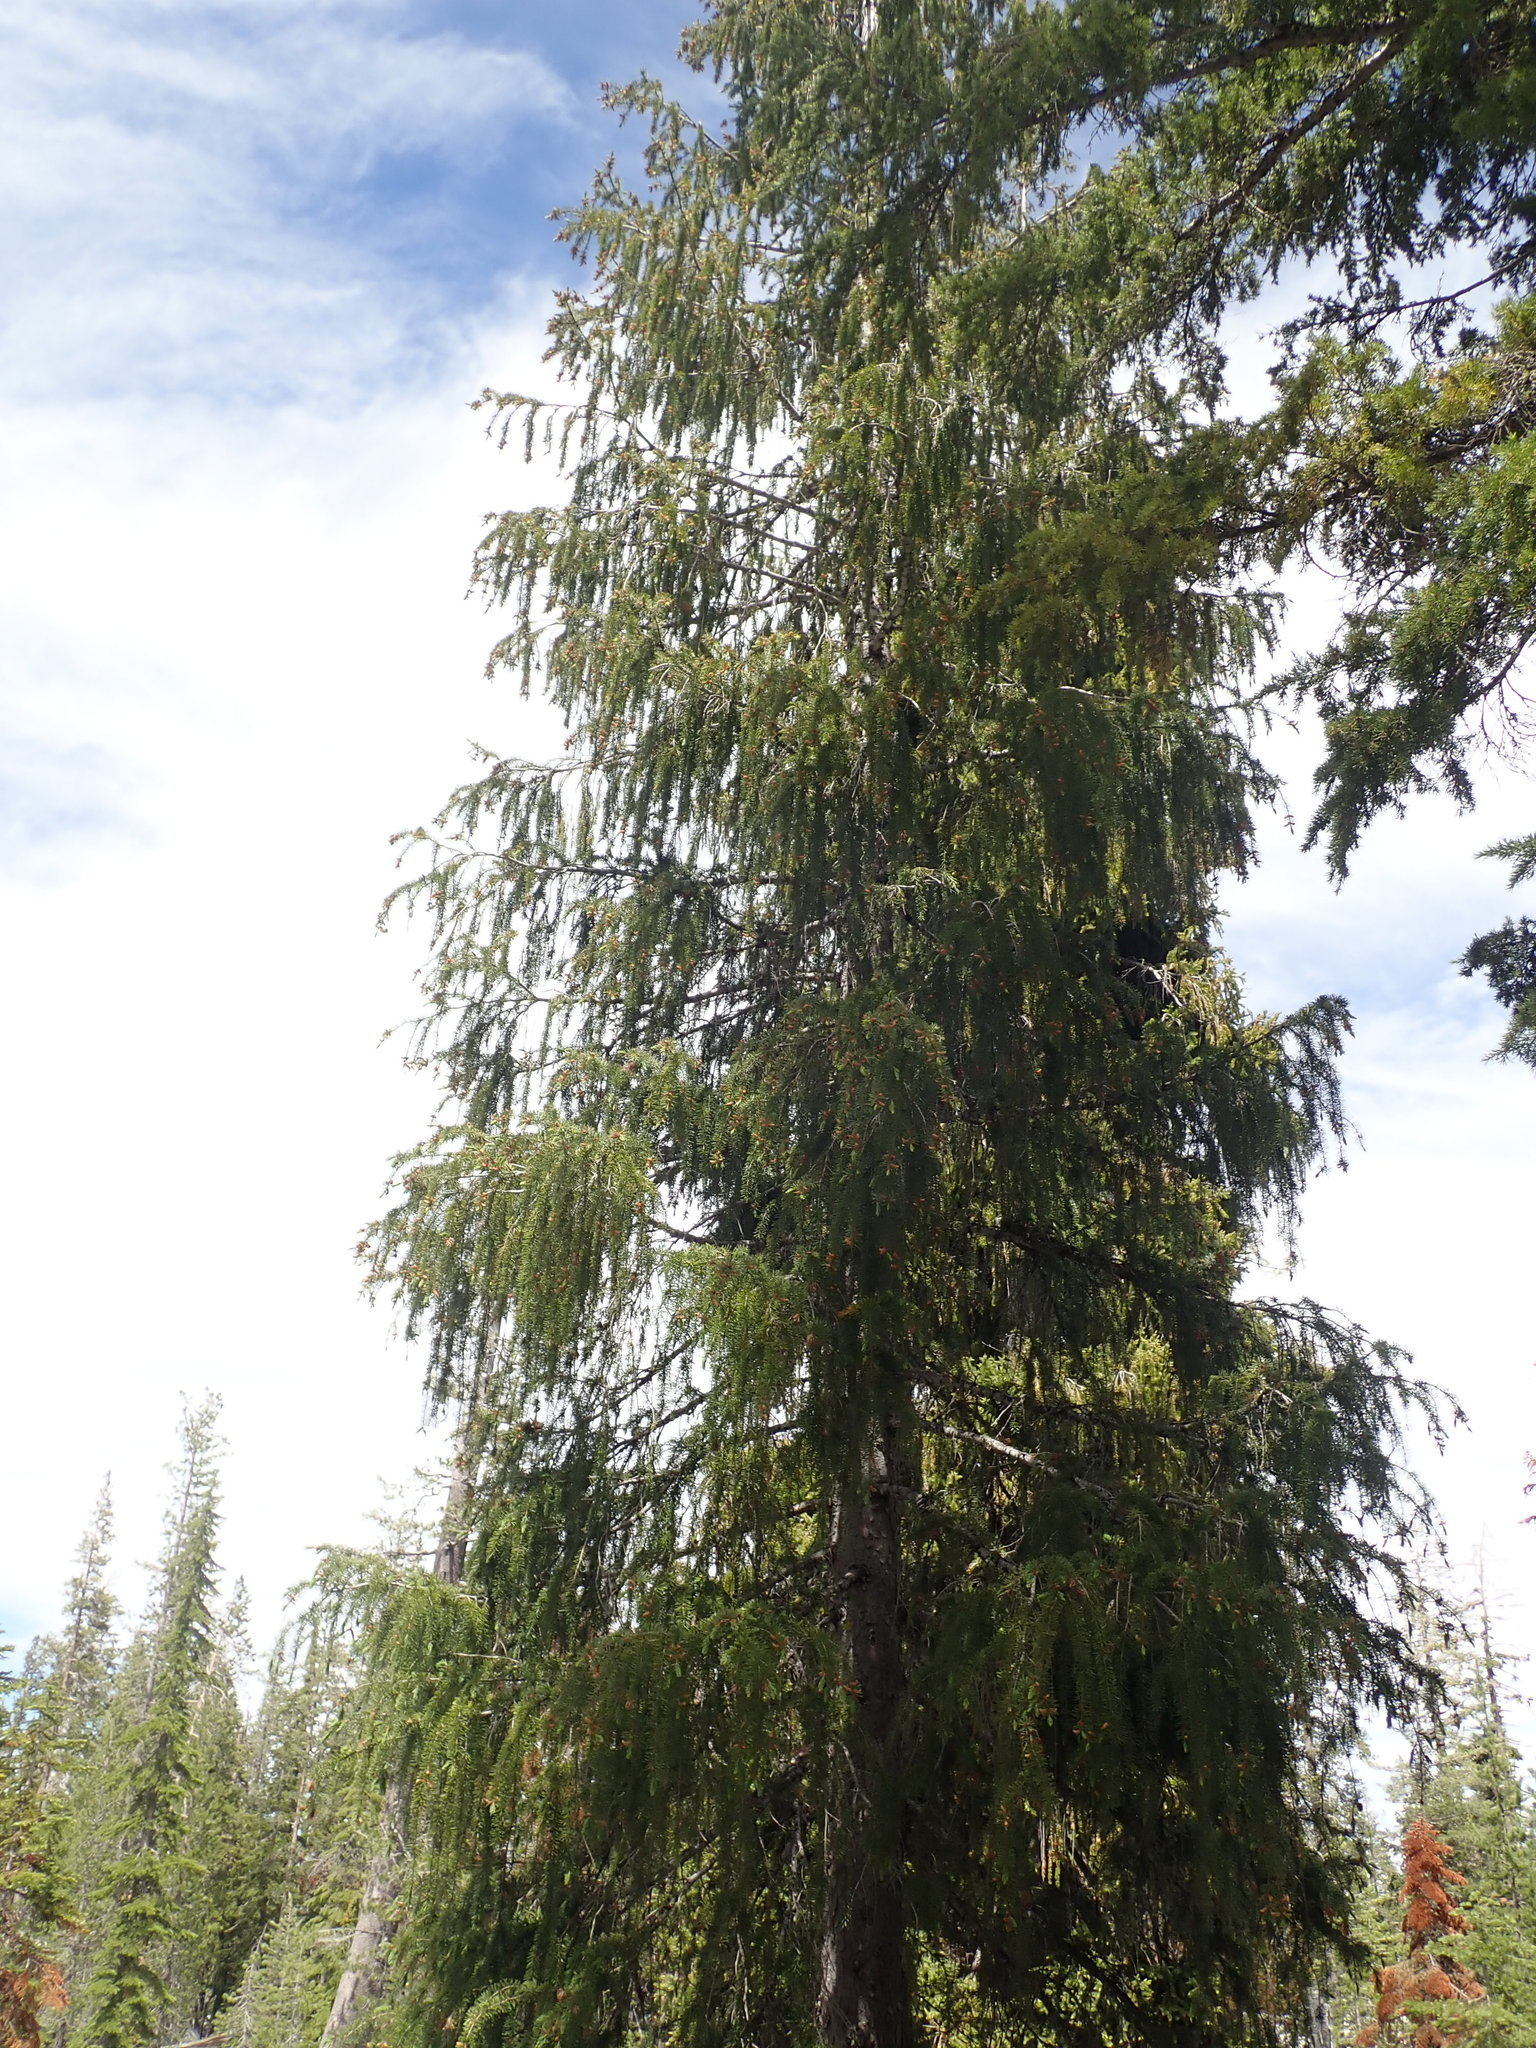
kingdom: Plantae
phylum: Tracheophyta
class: Pinopsida
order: Pinales
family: Pinaceae
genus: Picea
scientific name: Picea breweriana
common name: Brewer's spruce
